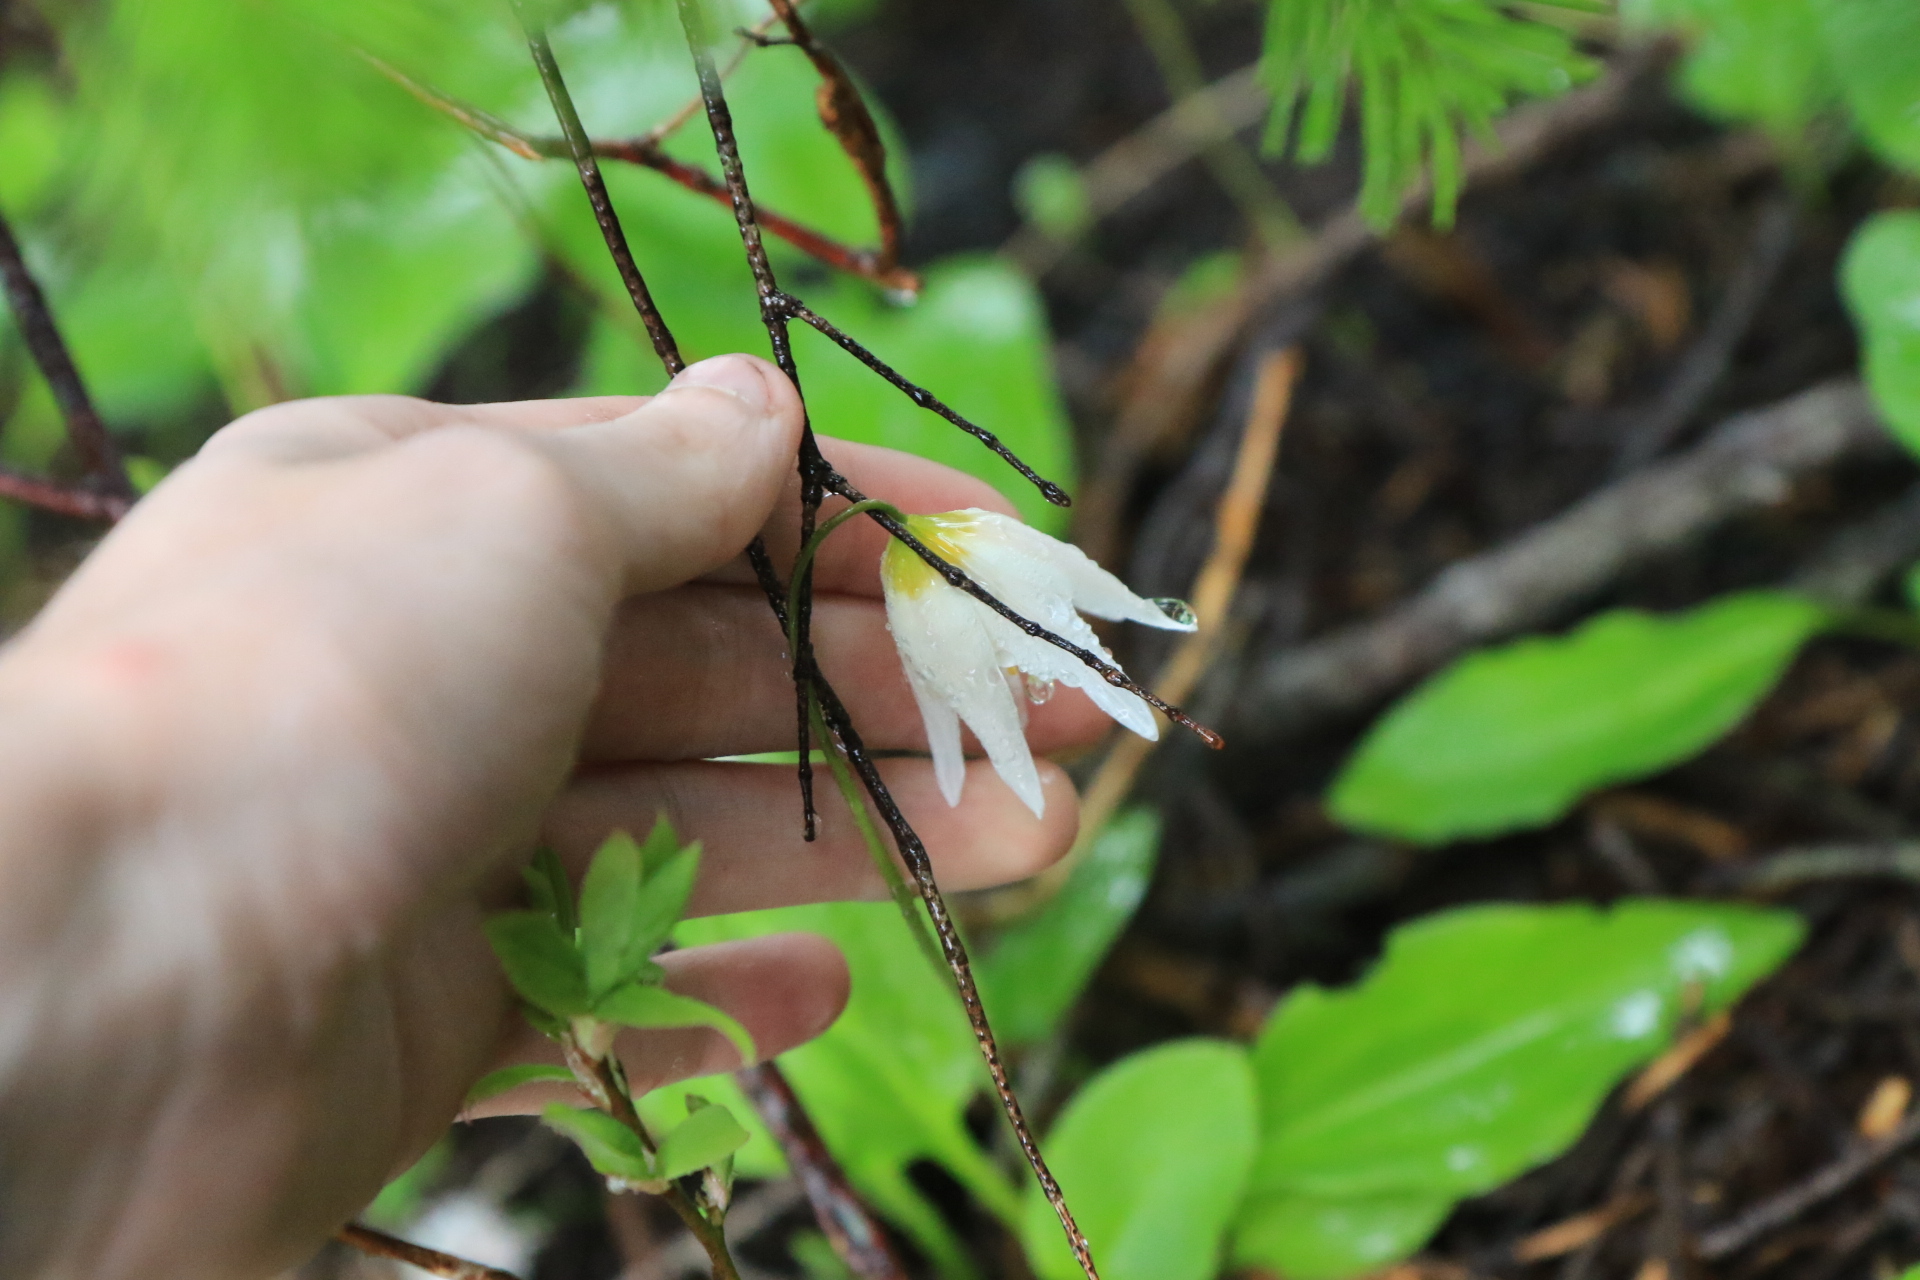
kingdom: Plantae
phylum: Tracheophyta
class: Liliopsida
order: Liliales
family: Liliaceae
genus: Erythronium
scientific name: Erythronium montanum
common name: Avalanche lily
